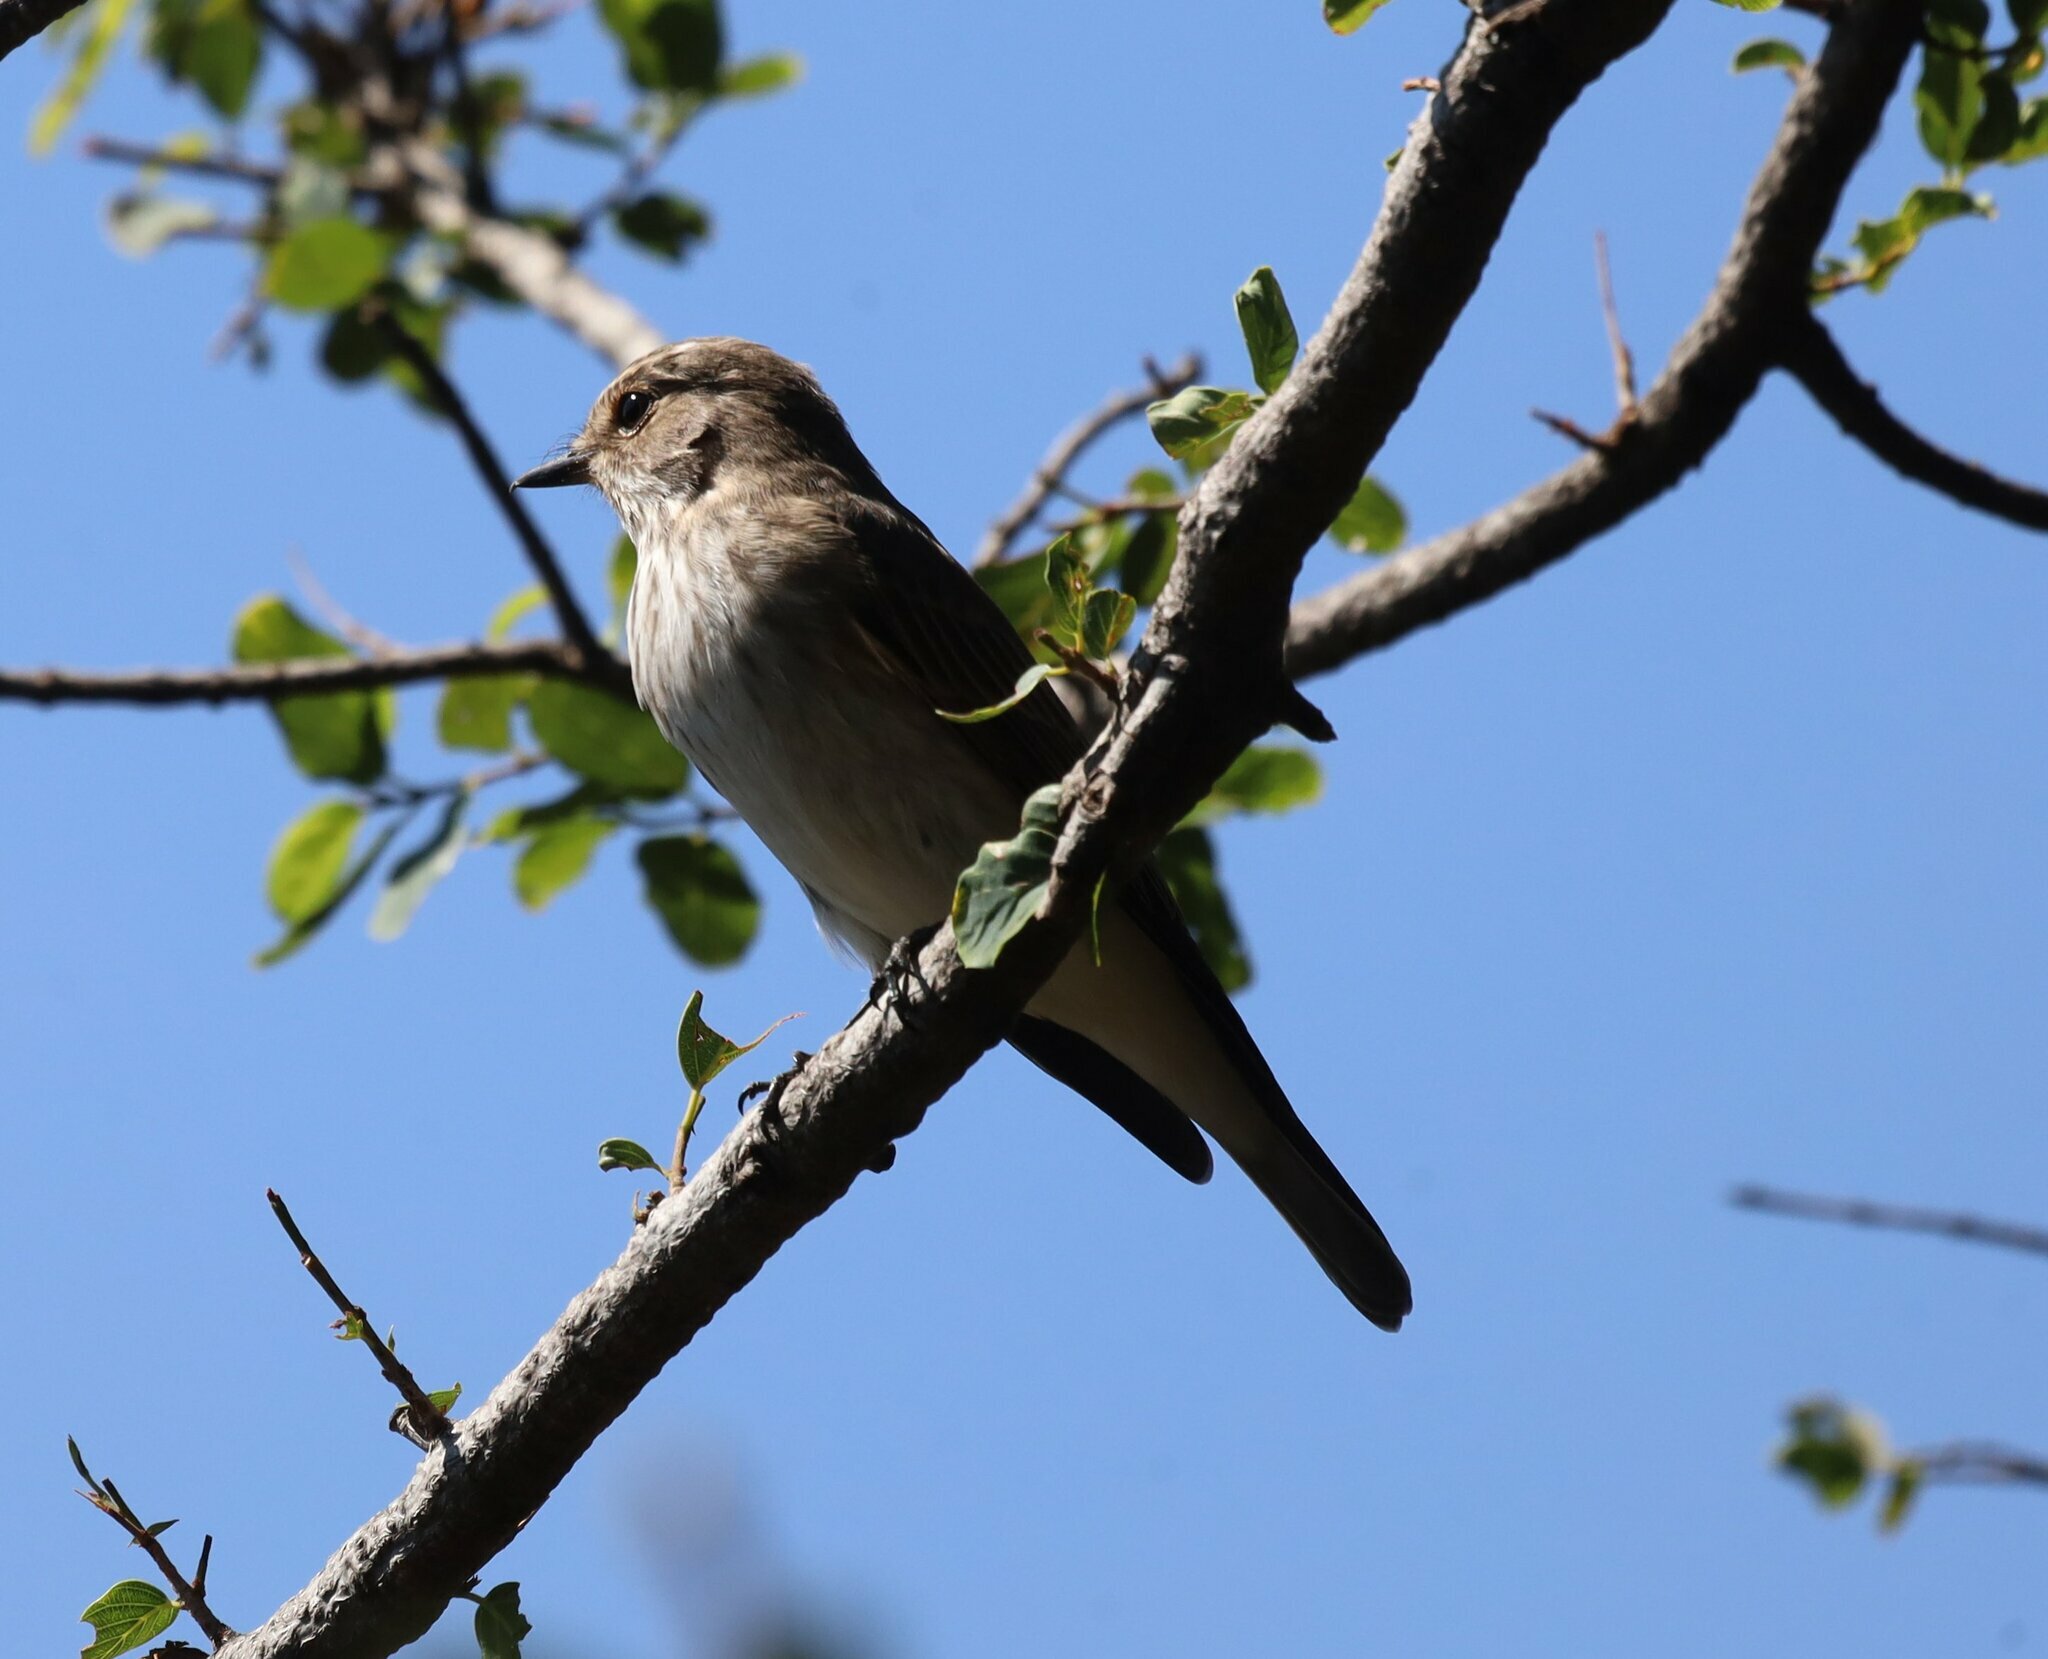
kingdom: Animalia
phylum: Chordata
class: Aves
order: Passeriformes
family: Muscicapidae
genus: Muscicapa
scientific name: Muscicapa striata
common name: Spotted flycatcher
